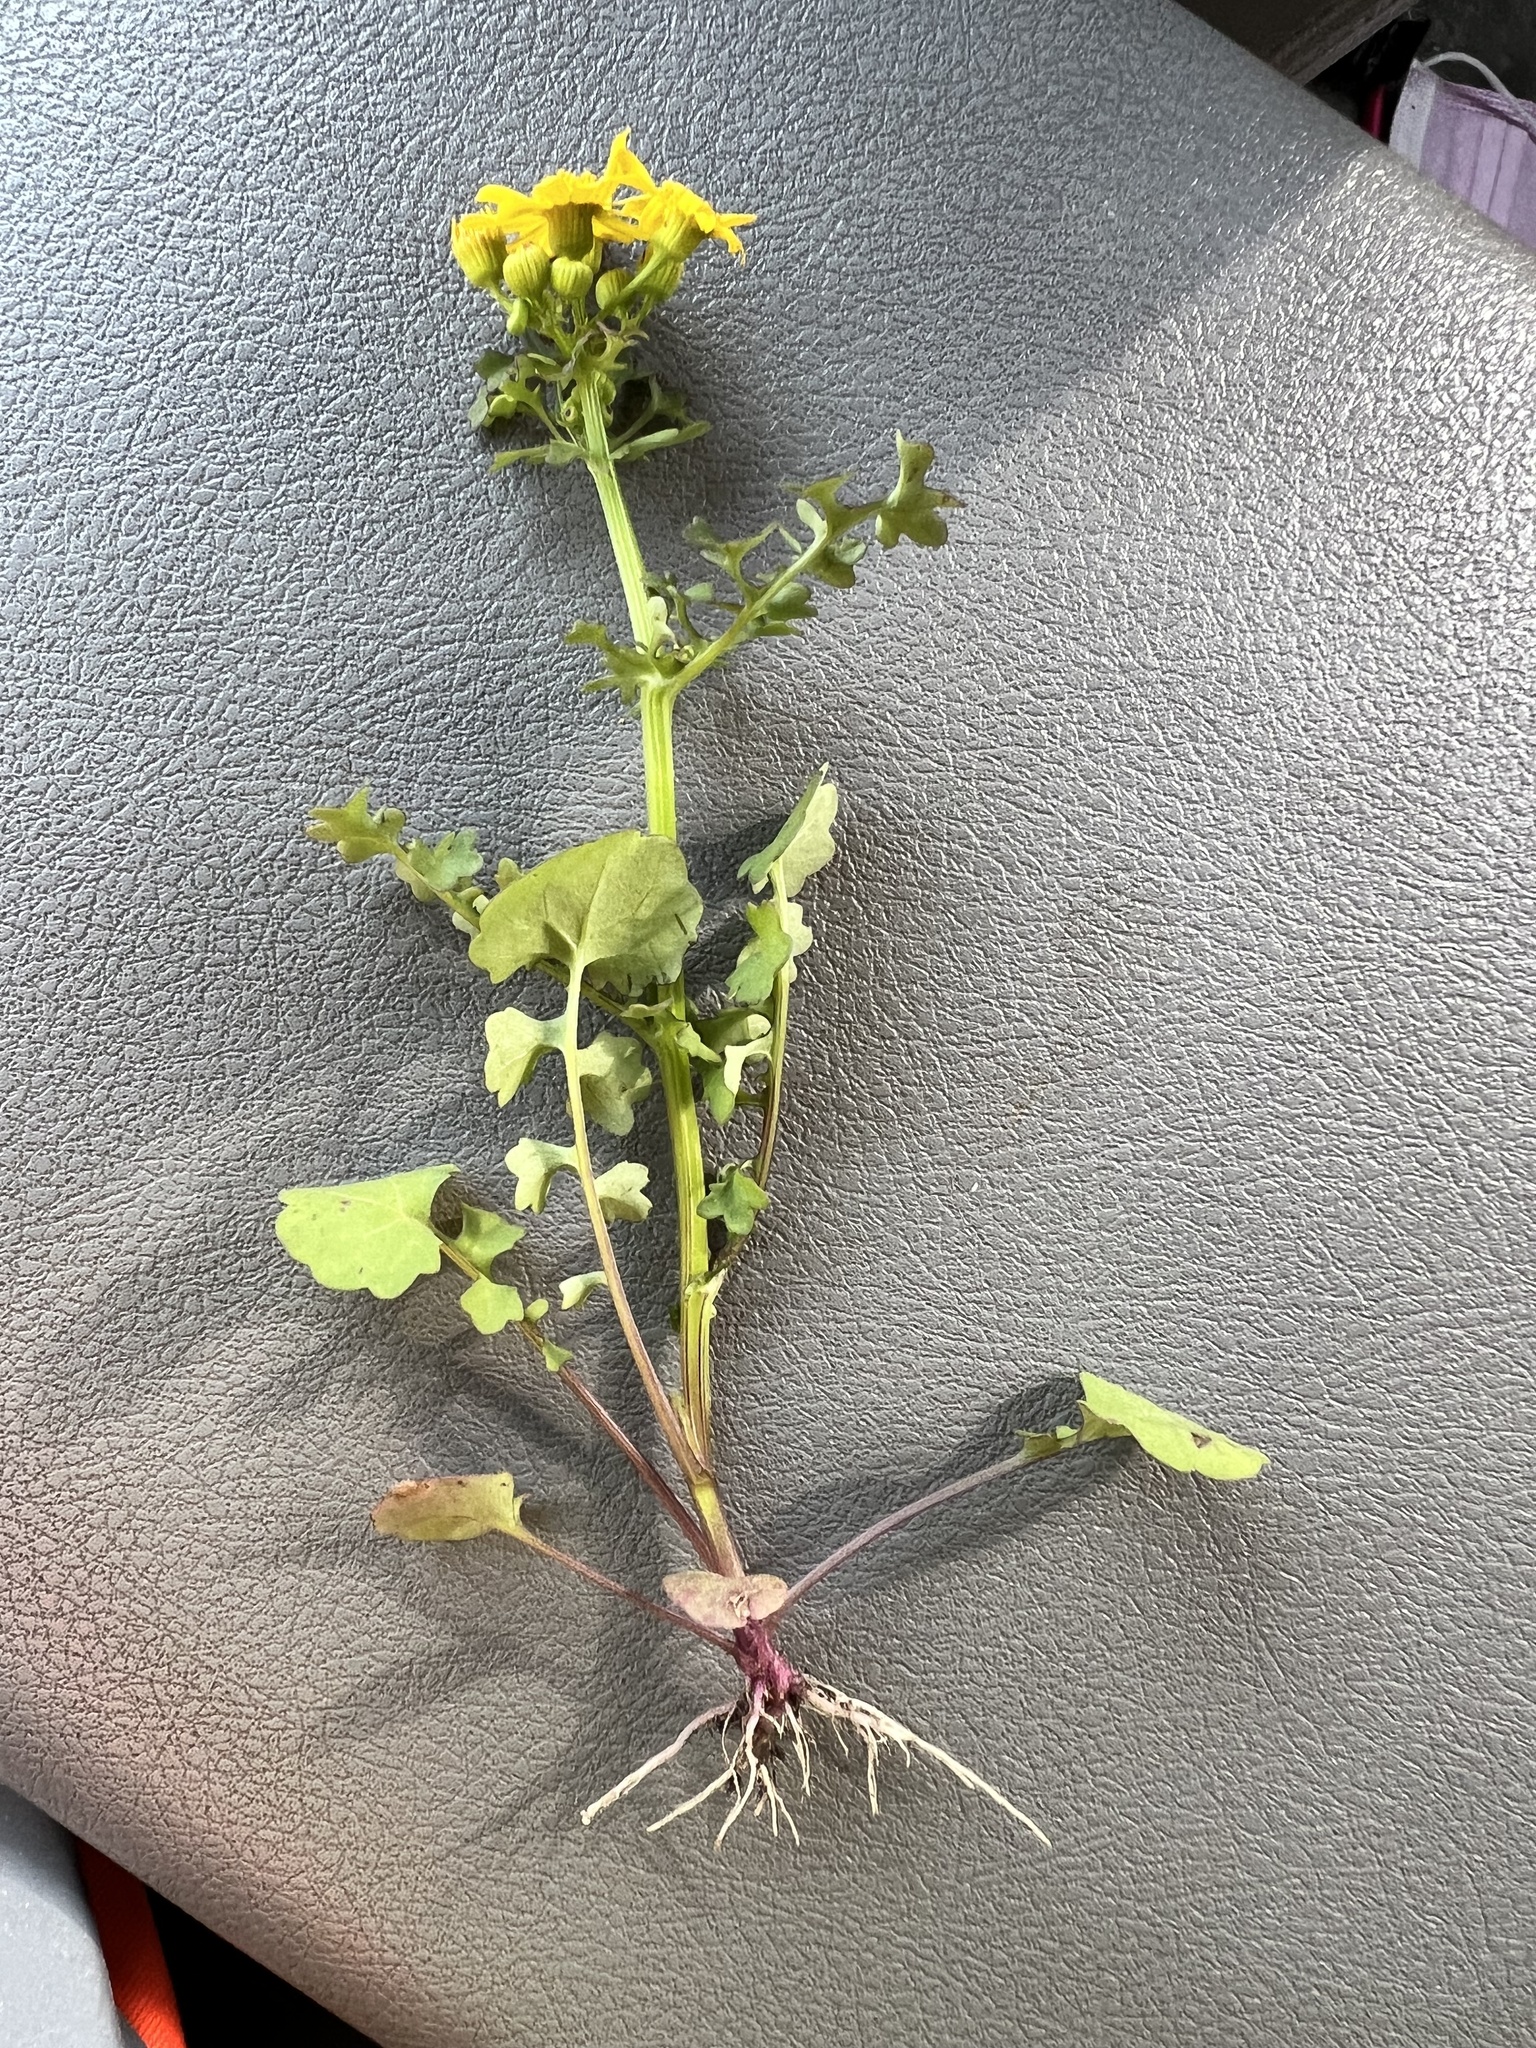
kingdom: Plantae
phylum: Tracheophyta
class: Magnoliopsida
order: Asterales
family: Asteraceae
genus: Packera
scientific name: Packera tampicana
